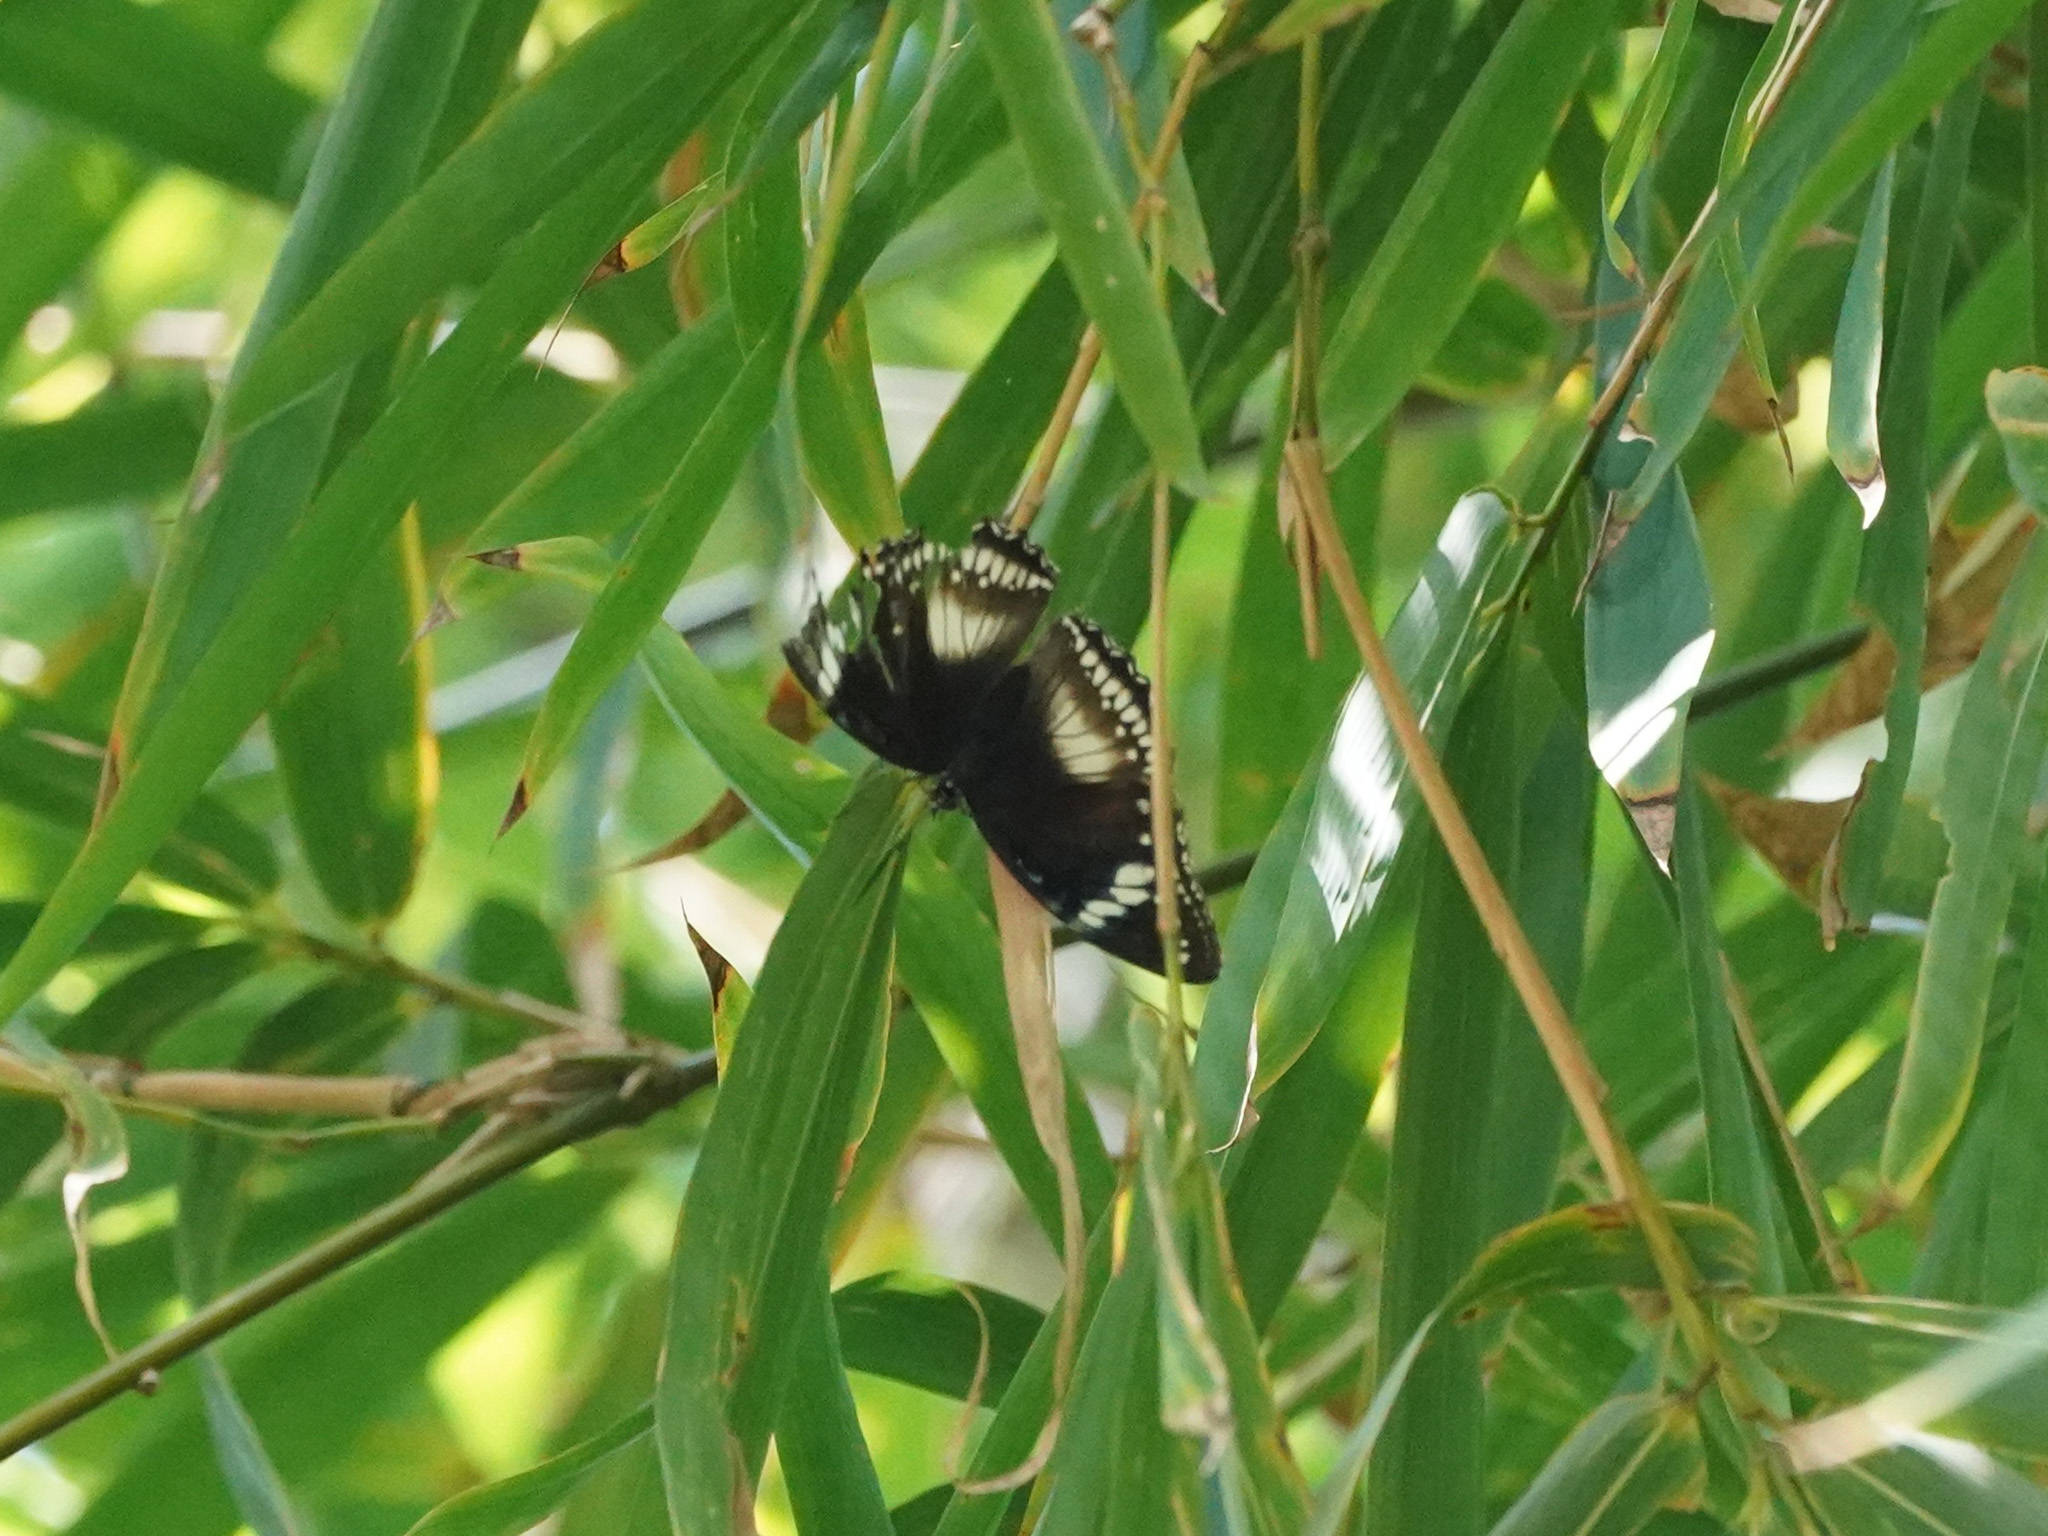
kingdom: Animalia
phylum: Arthropoda
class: Insecta
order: Lepidoptera
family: Nymphalidae
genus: Hypolimnas
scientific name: Hypolimnas bolina
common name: Great eggfly
